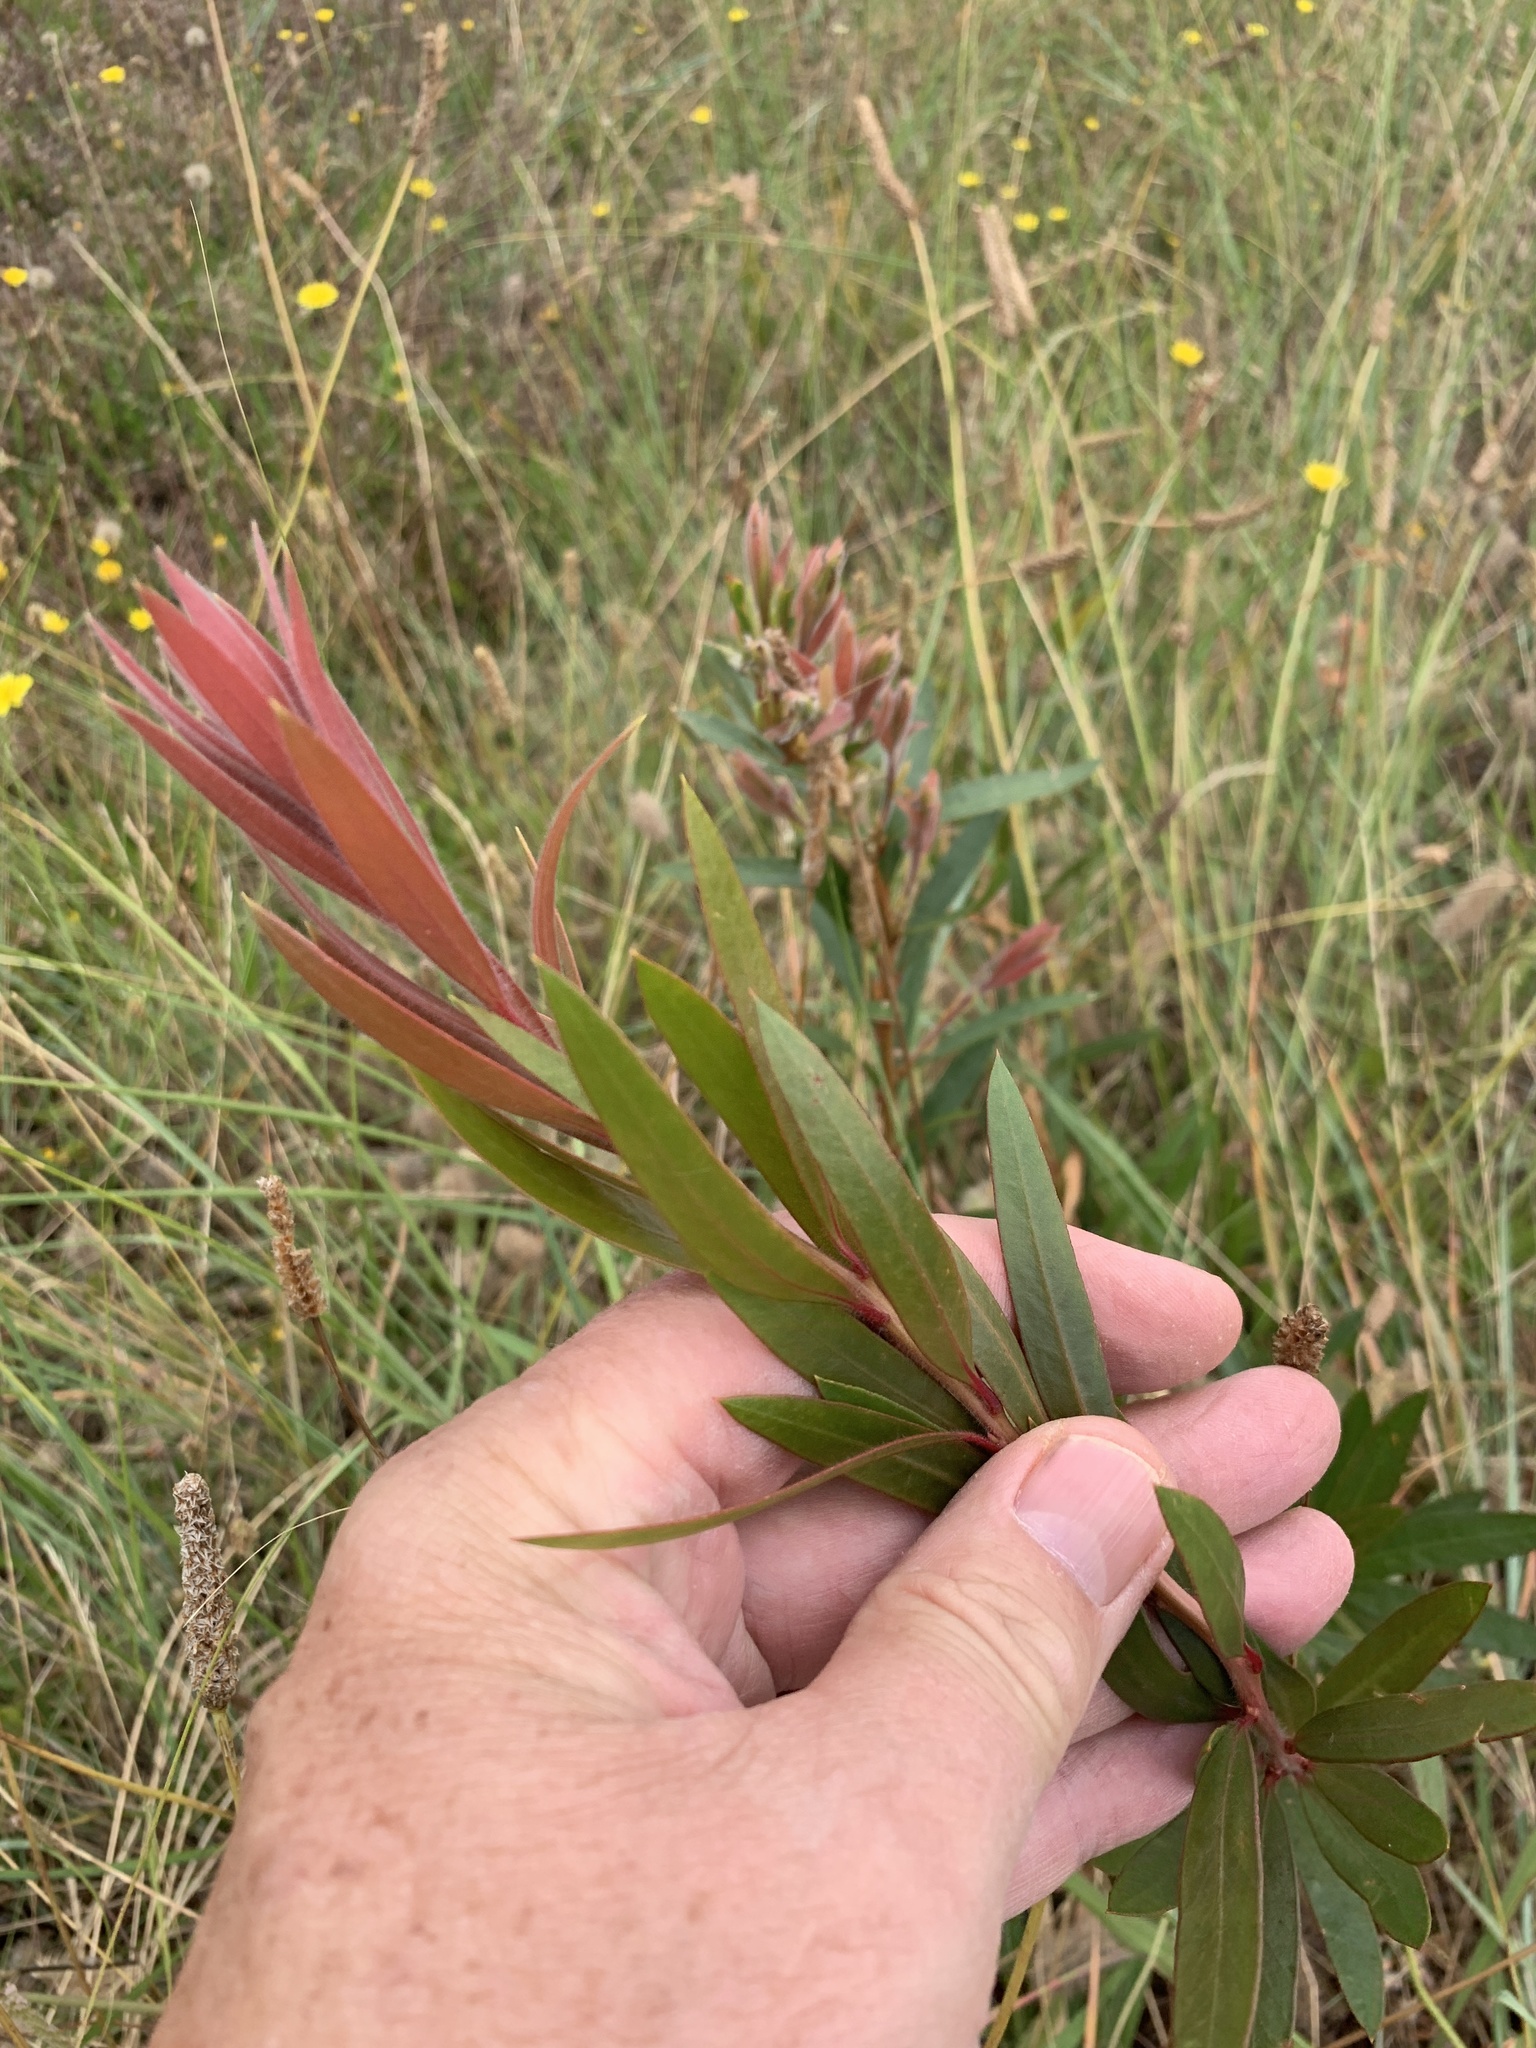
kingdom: Plantae
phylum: Tracheophyta
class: Magnoliopsida
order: Myrtales
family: Myrtaceae
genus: Callistemon
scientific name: Callistemon viminalis
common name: Drooping bottlebrush
